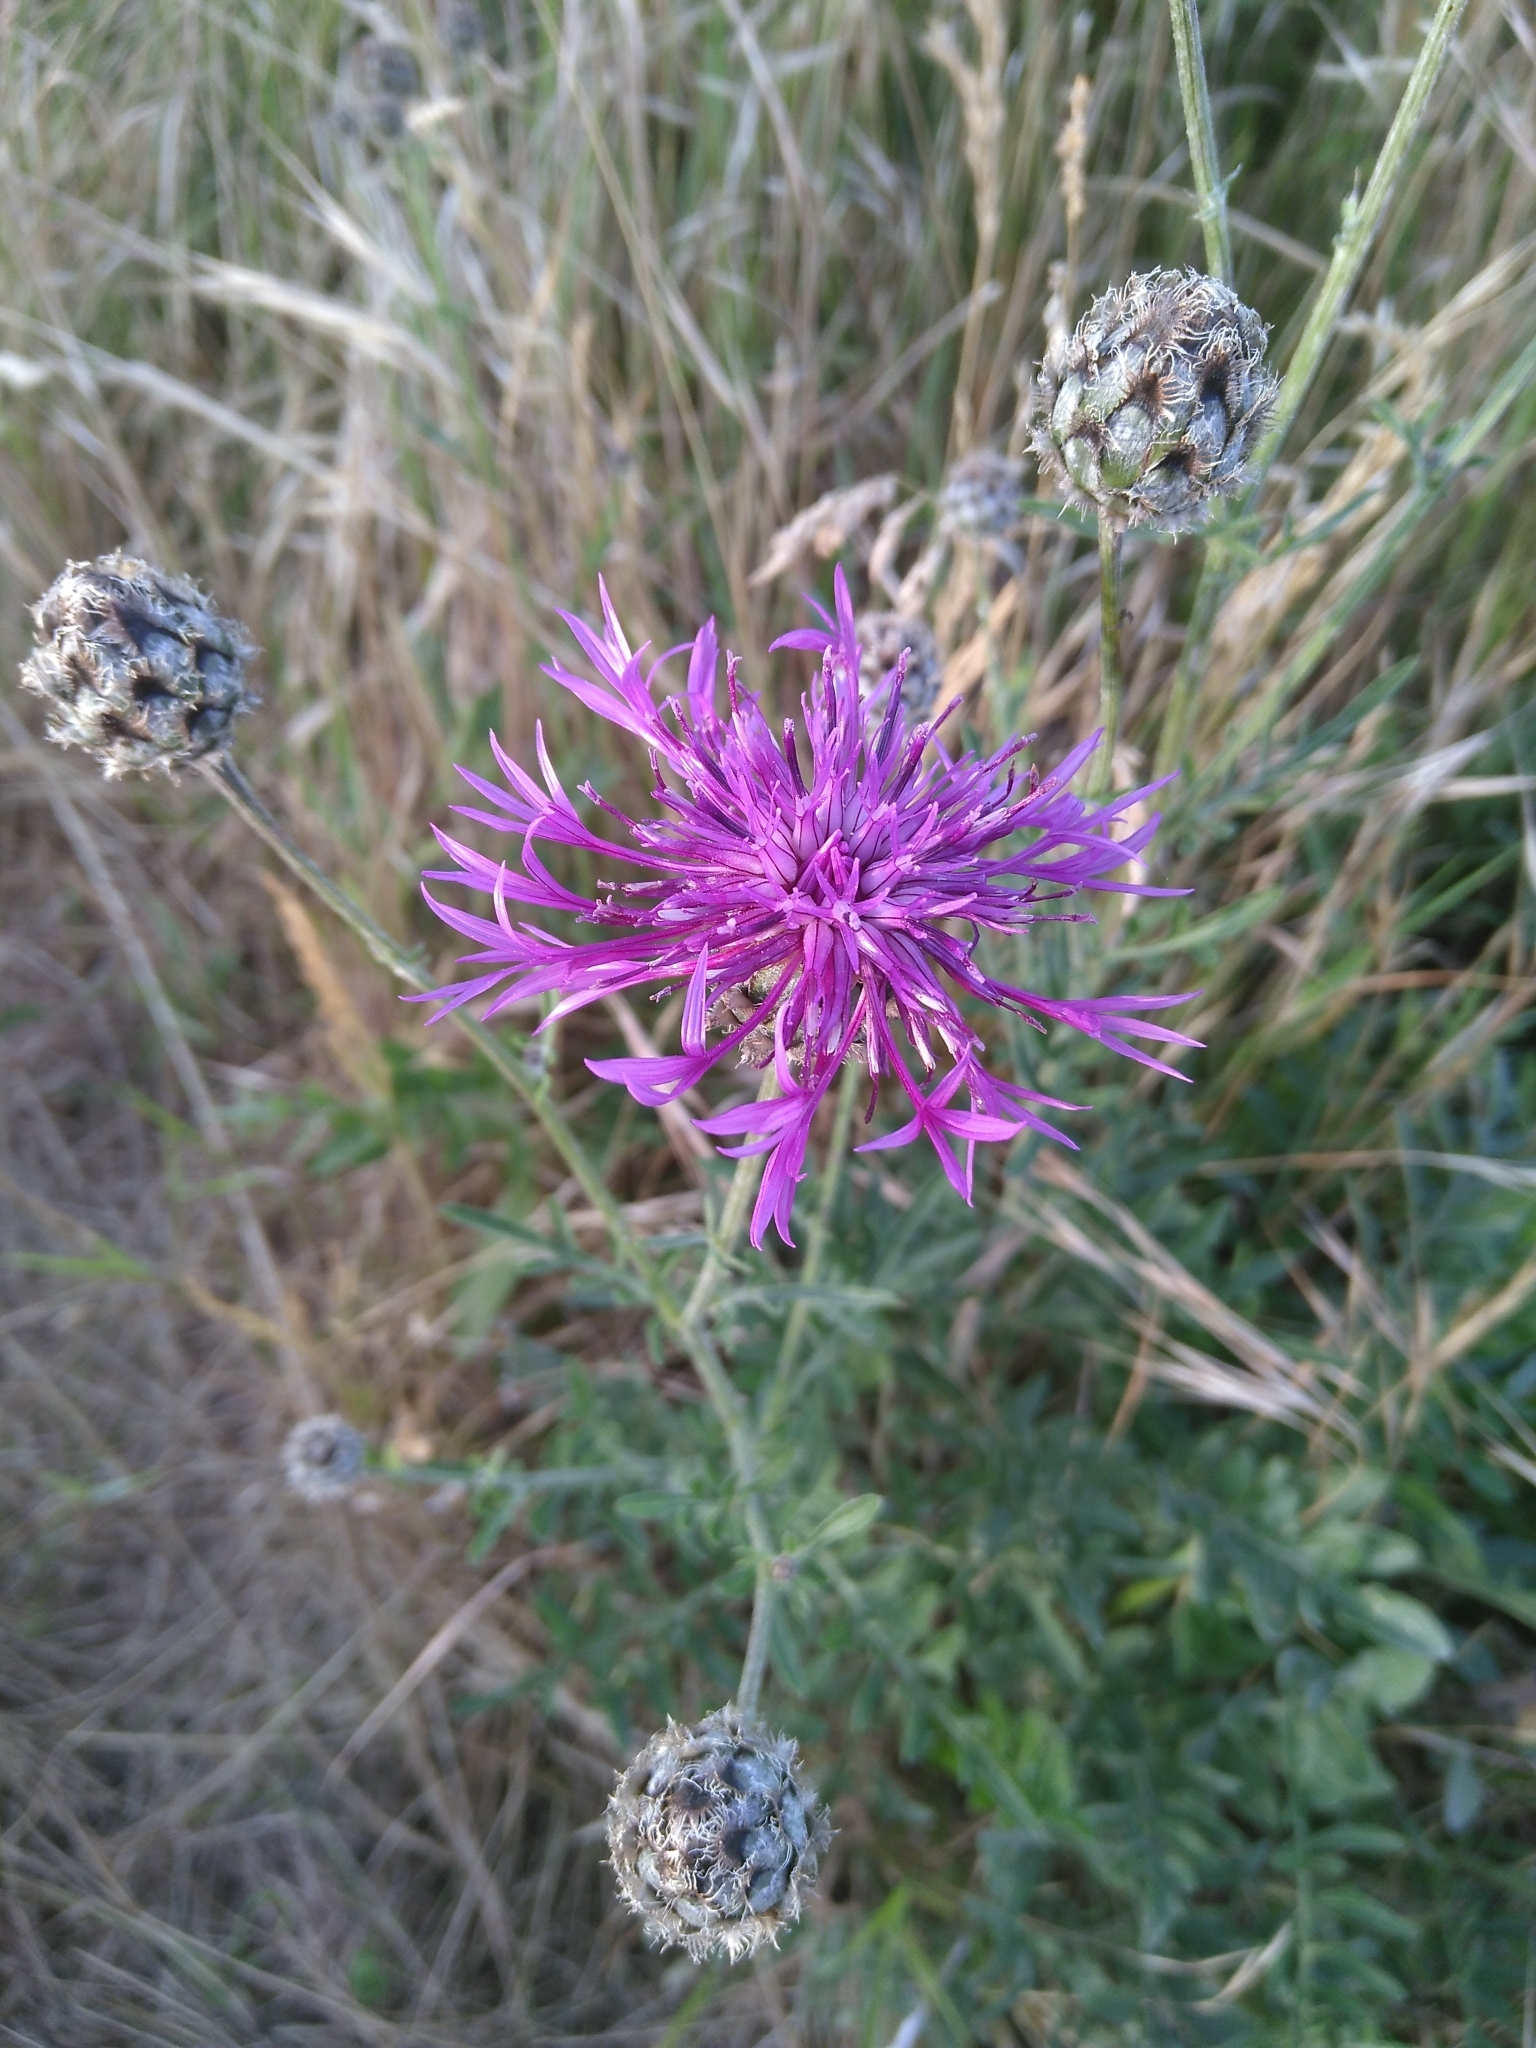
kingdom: Plantae
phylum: Tracheophyta
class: Magnoliopsida
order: Asterales
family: Asteraceae
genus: Centaurea
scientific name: Centaurea scabiosa
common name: Greater knapweed
